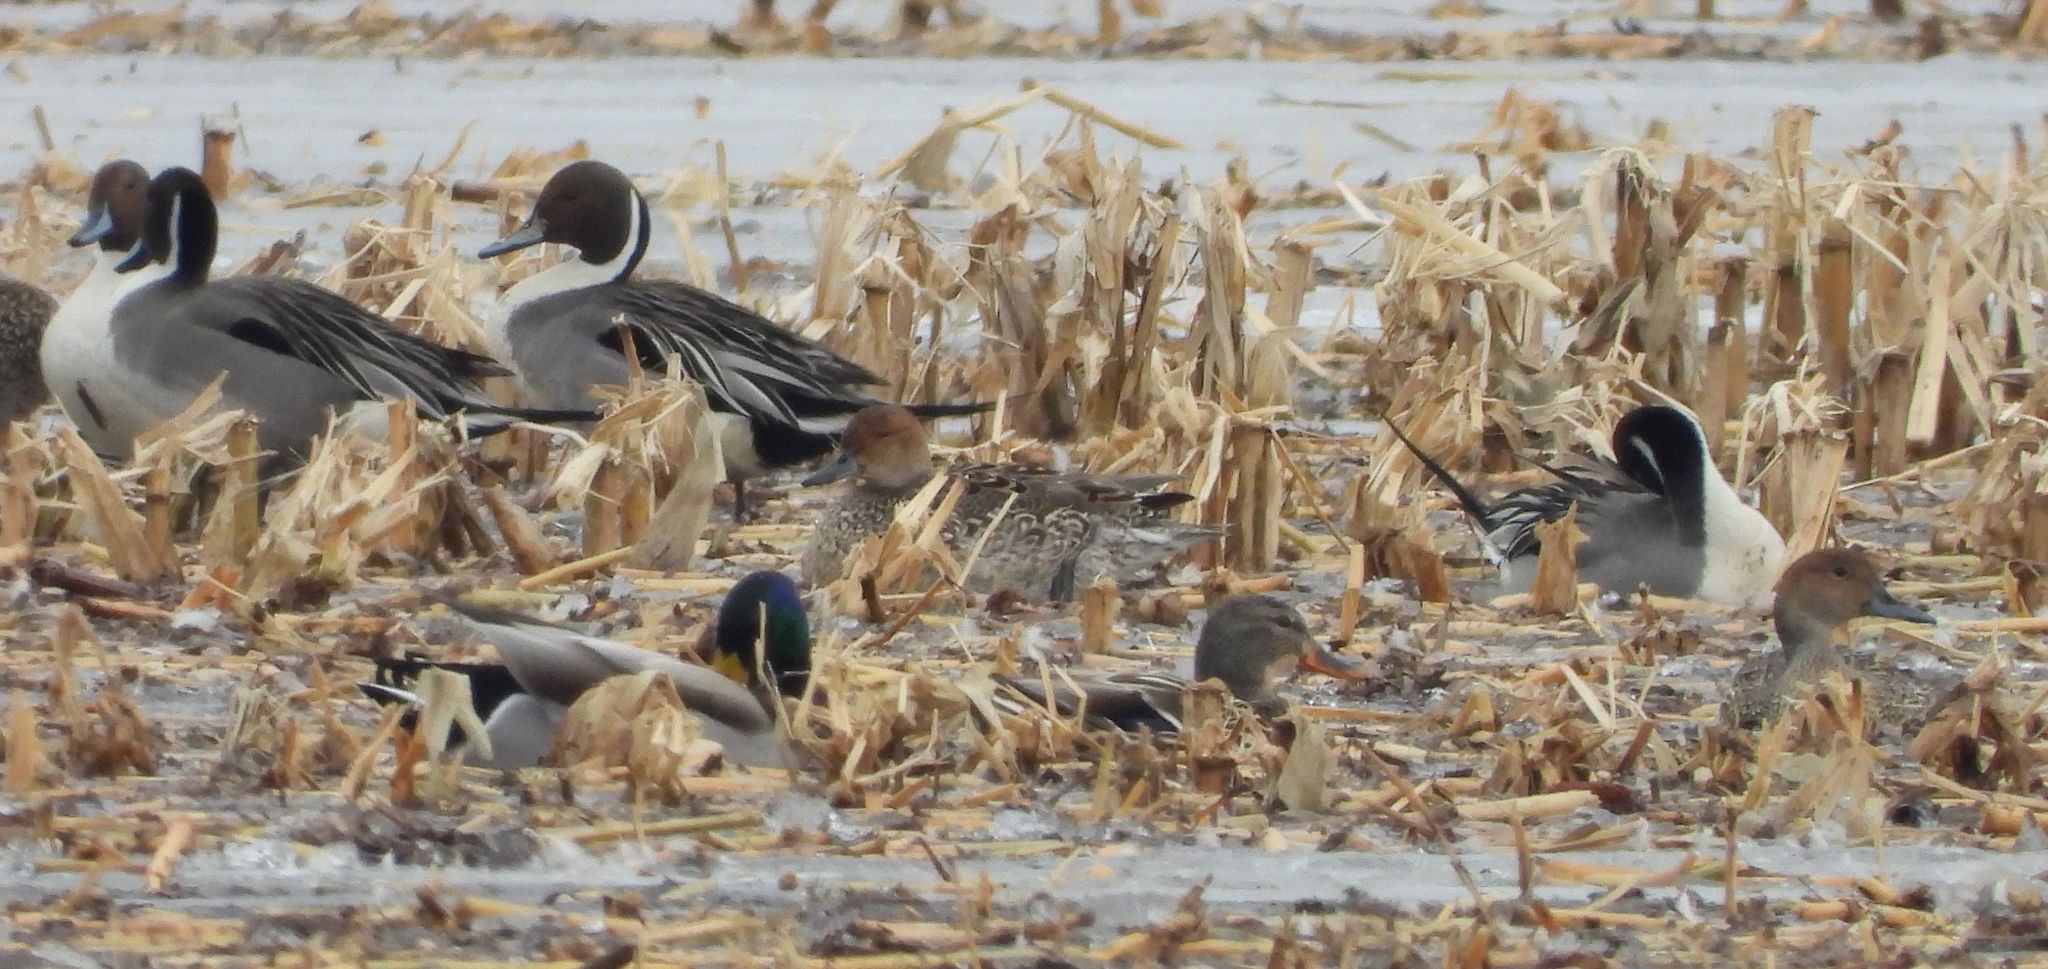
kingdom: Animalia
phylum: Chordata
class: Aves
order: Anseriformes
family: Anatidae
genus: Anas
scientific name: Anas acuta
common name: Northern pintail
